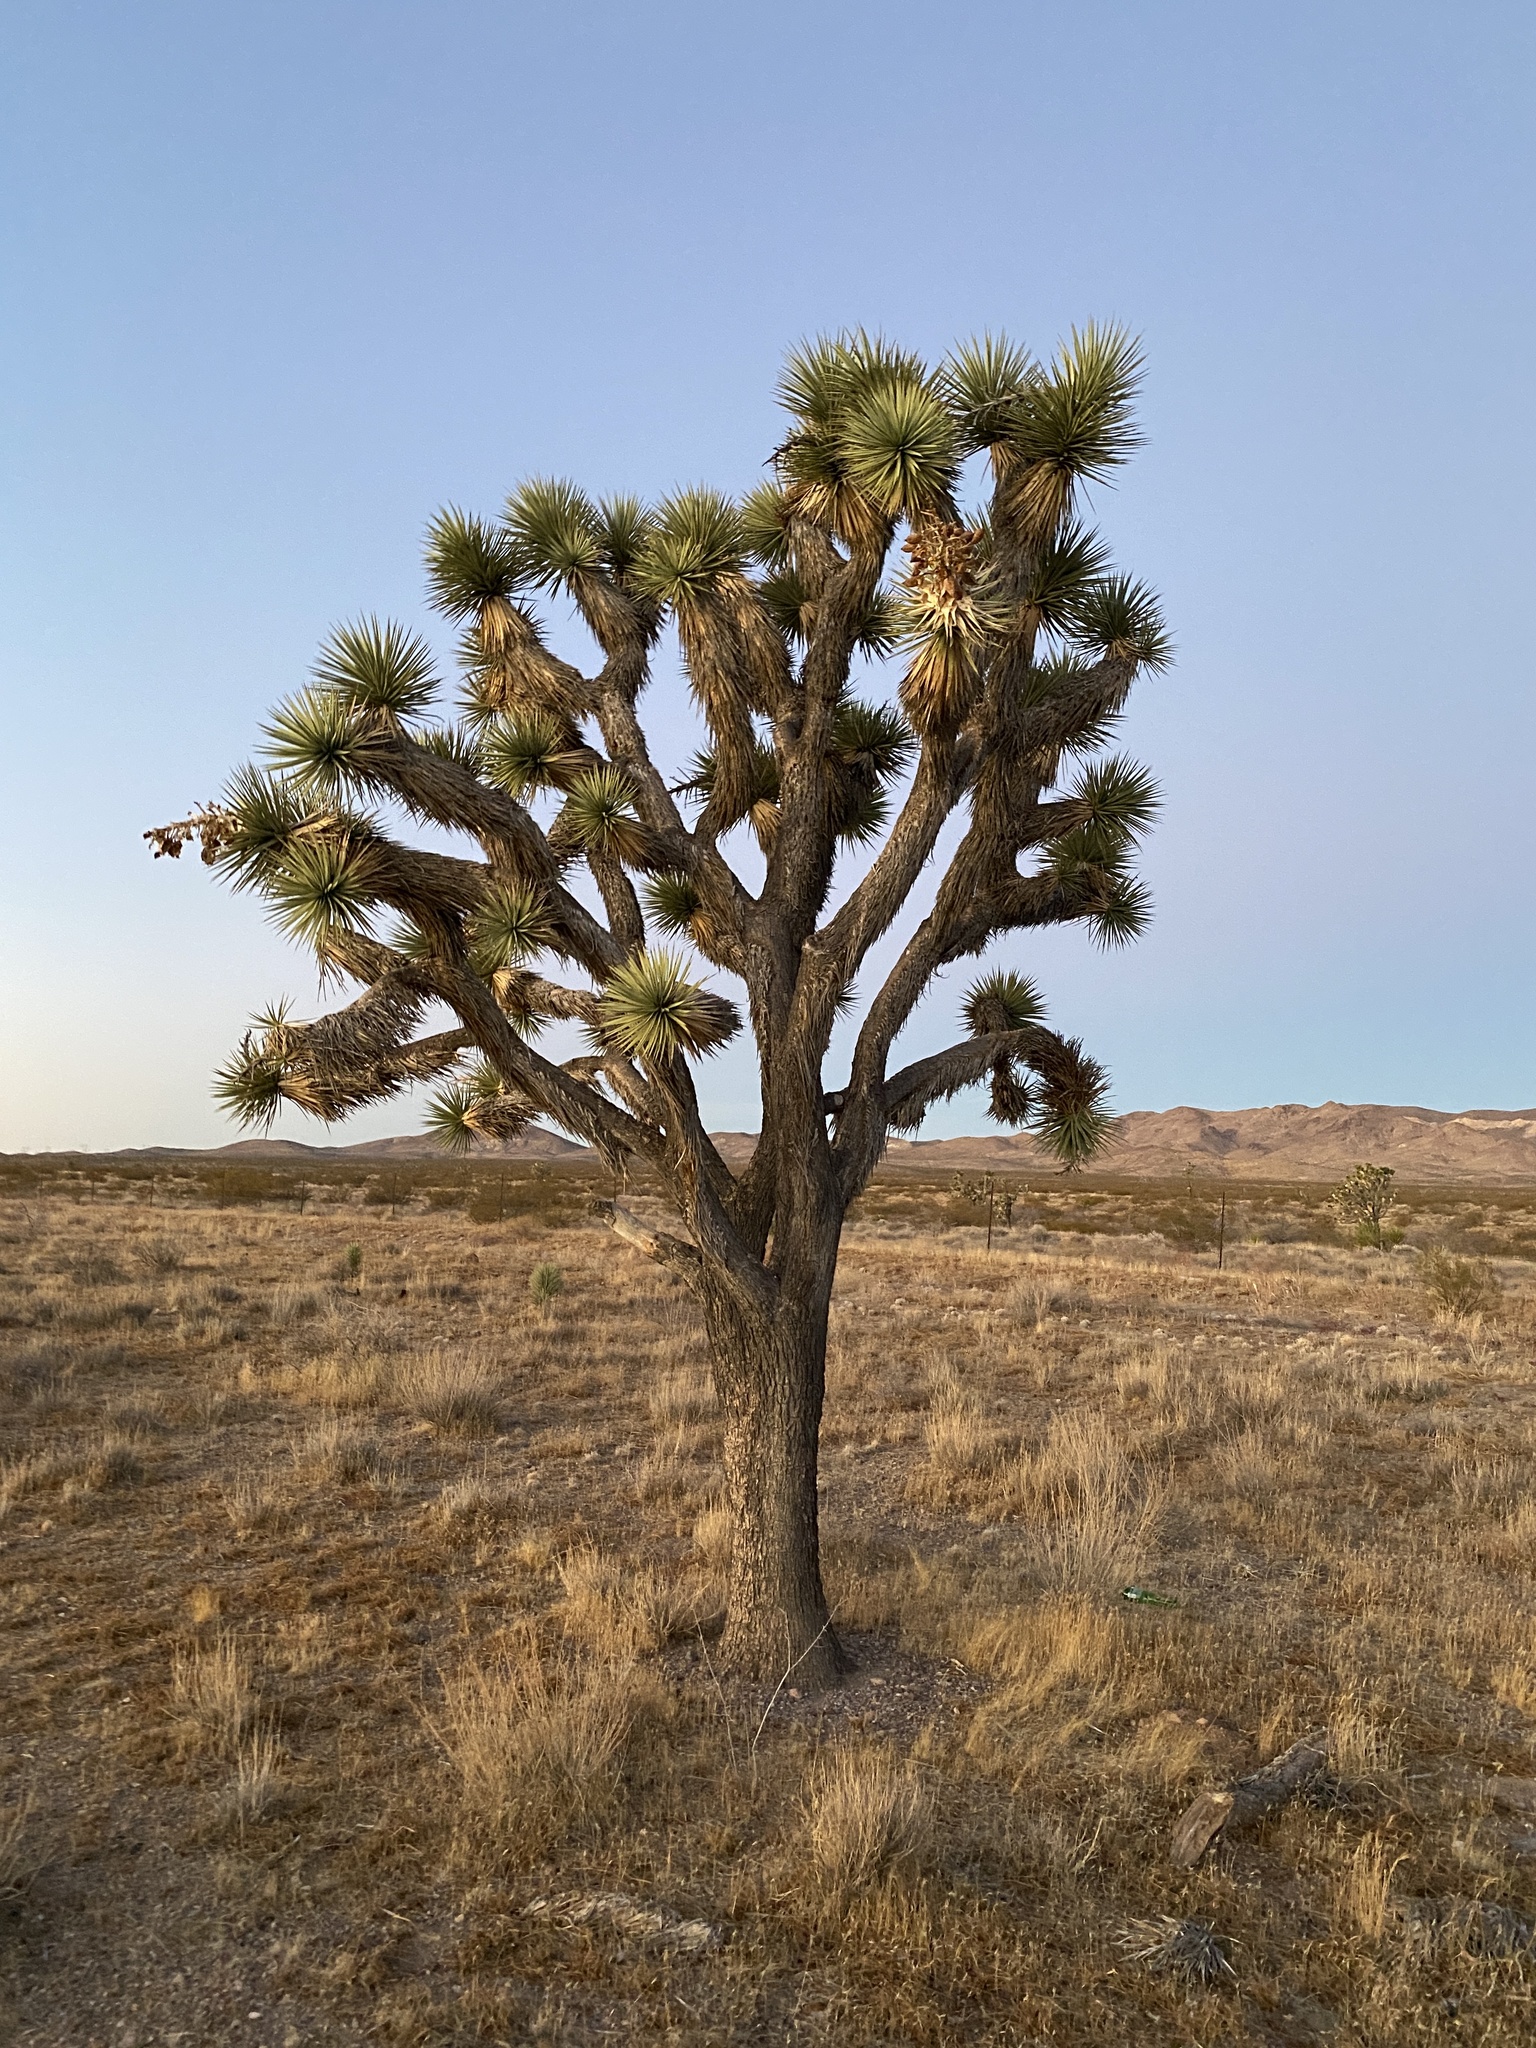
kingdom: Plantae
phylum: Tracheophyta
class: Liliopsida
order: Asparagales
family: Asparagaceae
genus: Yucca
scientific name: Yucca brevifolia
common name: Joshua tree
